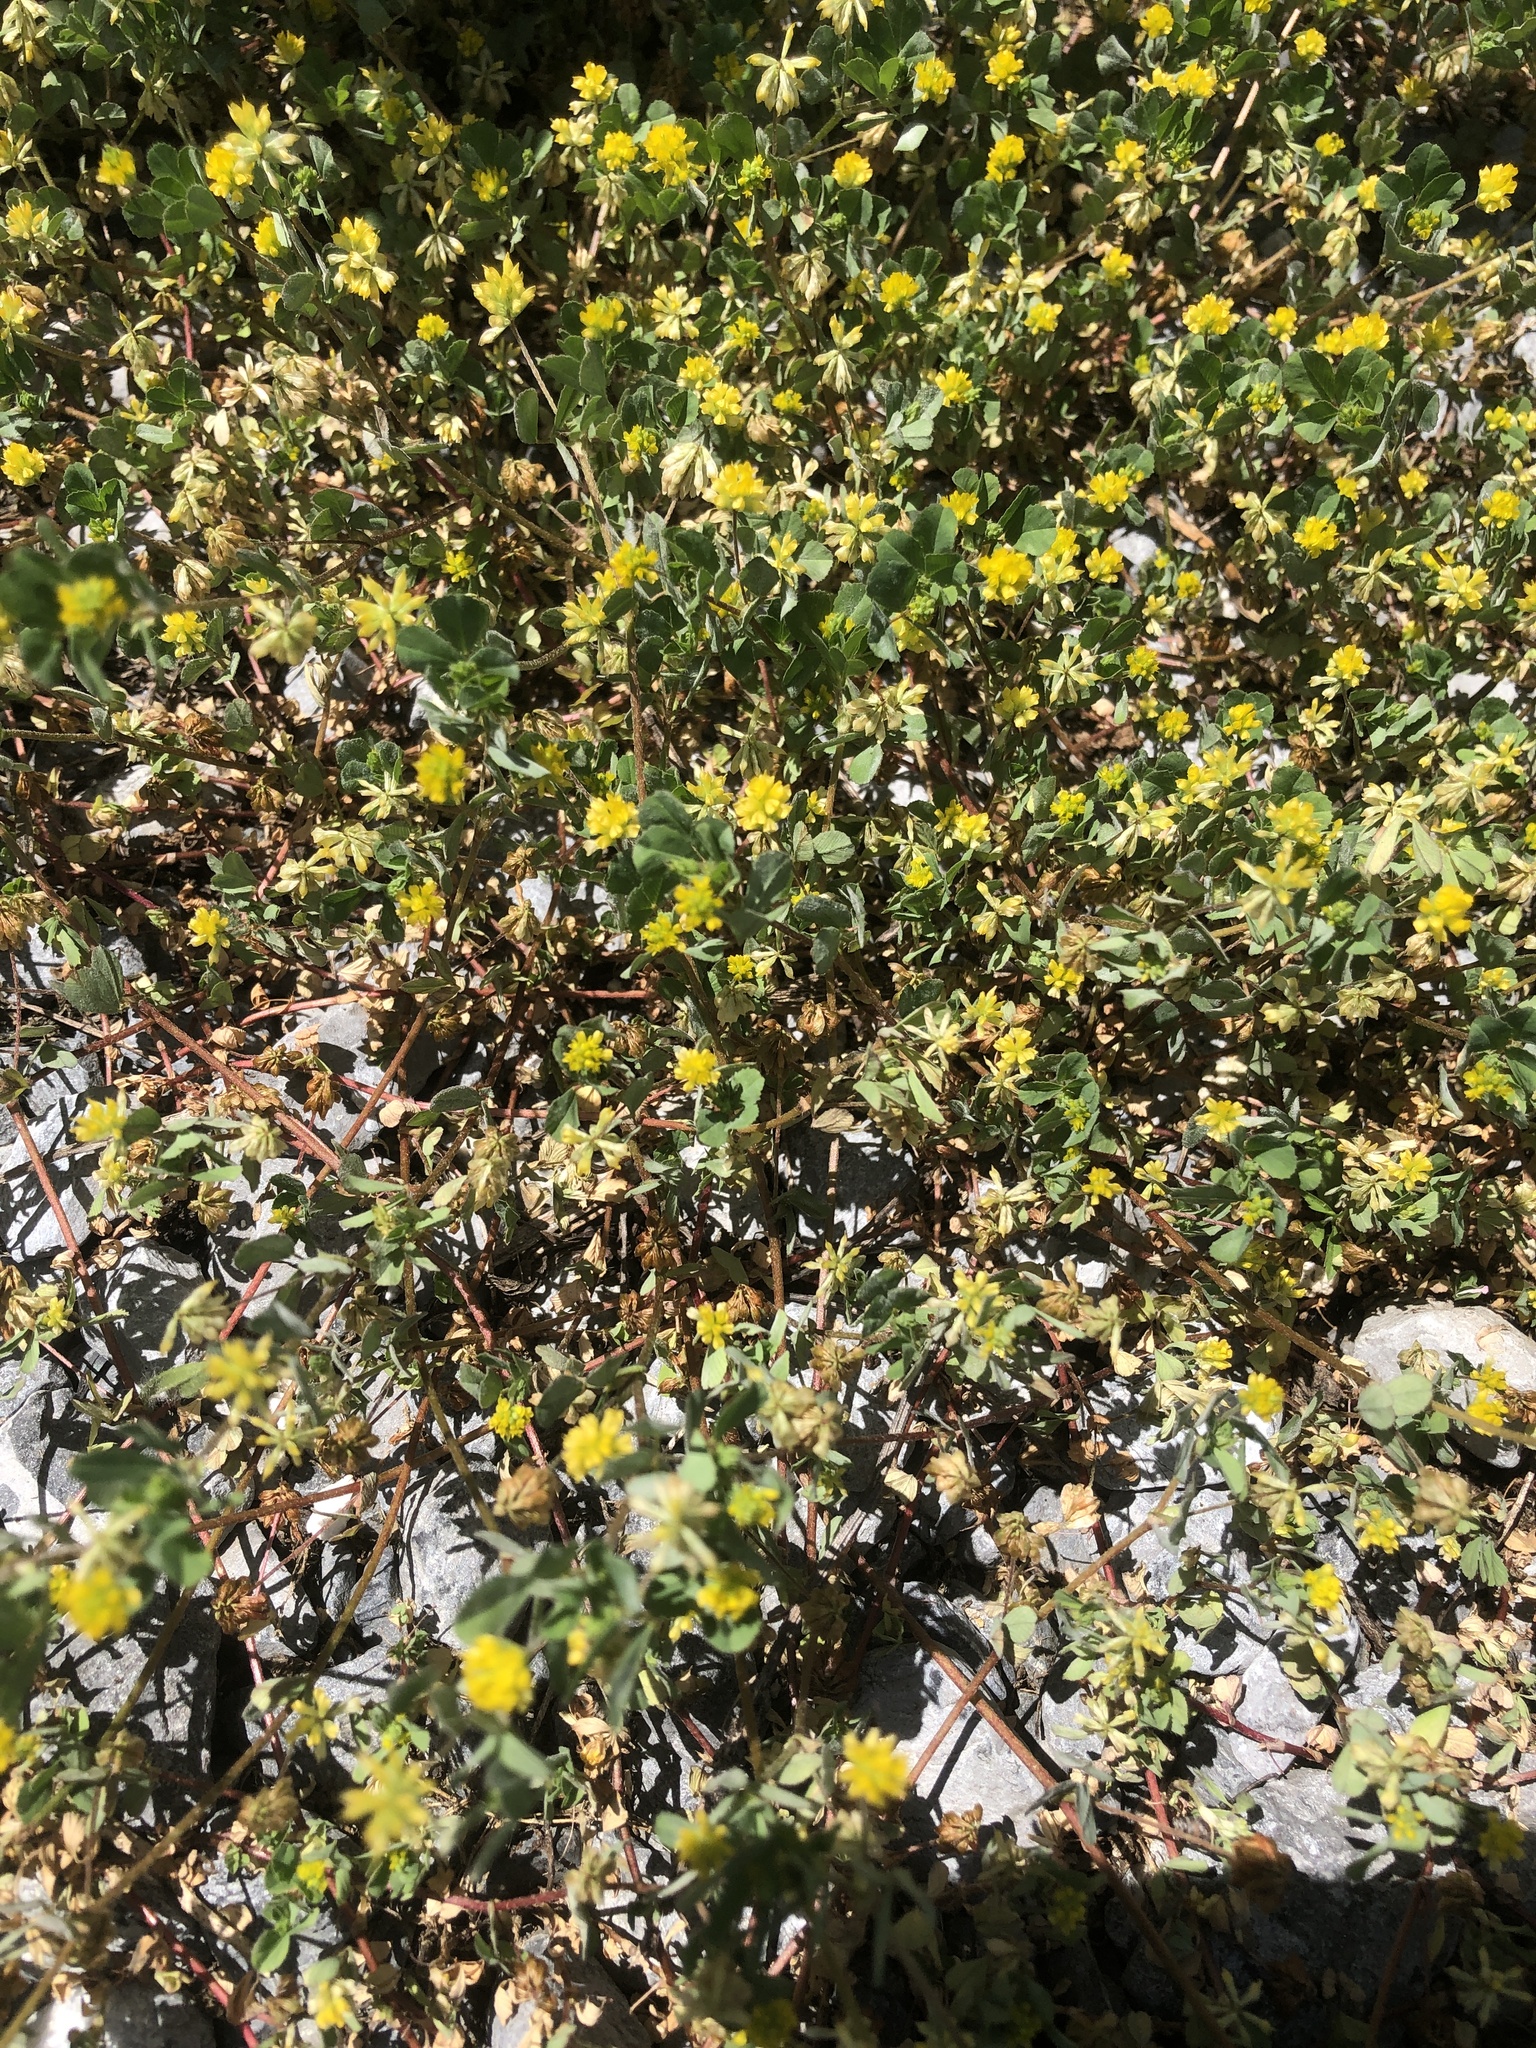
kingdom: Plantae
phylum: Tracheophyta
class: Magnoliopsida
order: Fabales
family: Fabaceae
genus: Trifolium
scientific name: Trifolium dubium
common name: Suckling clover
